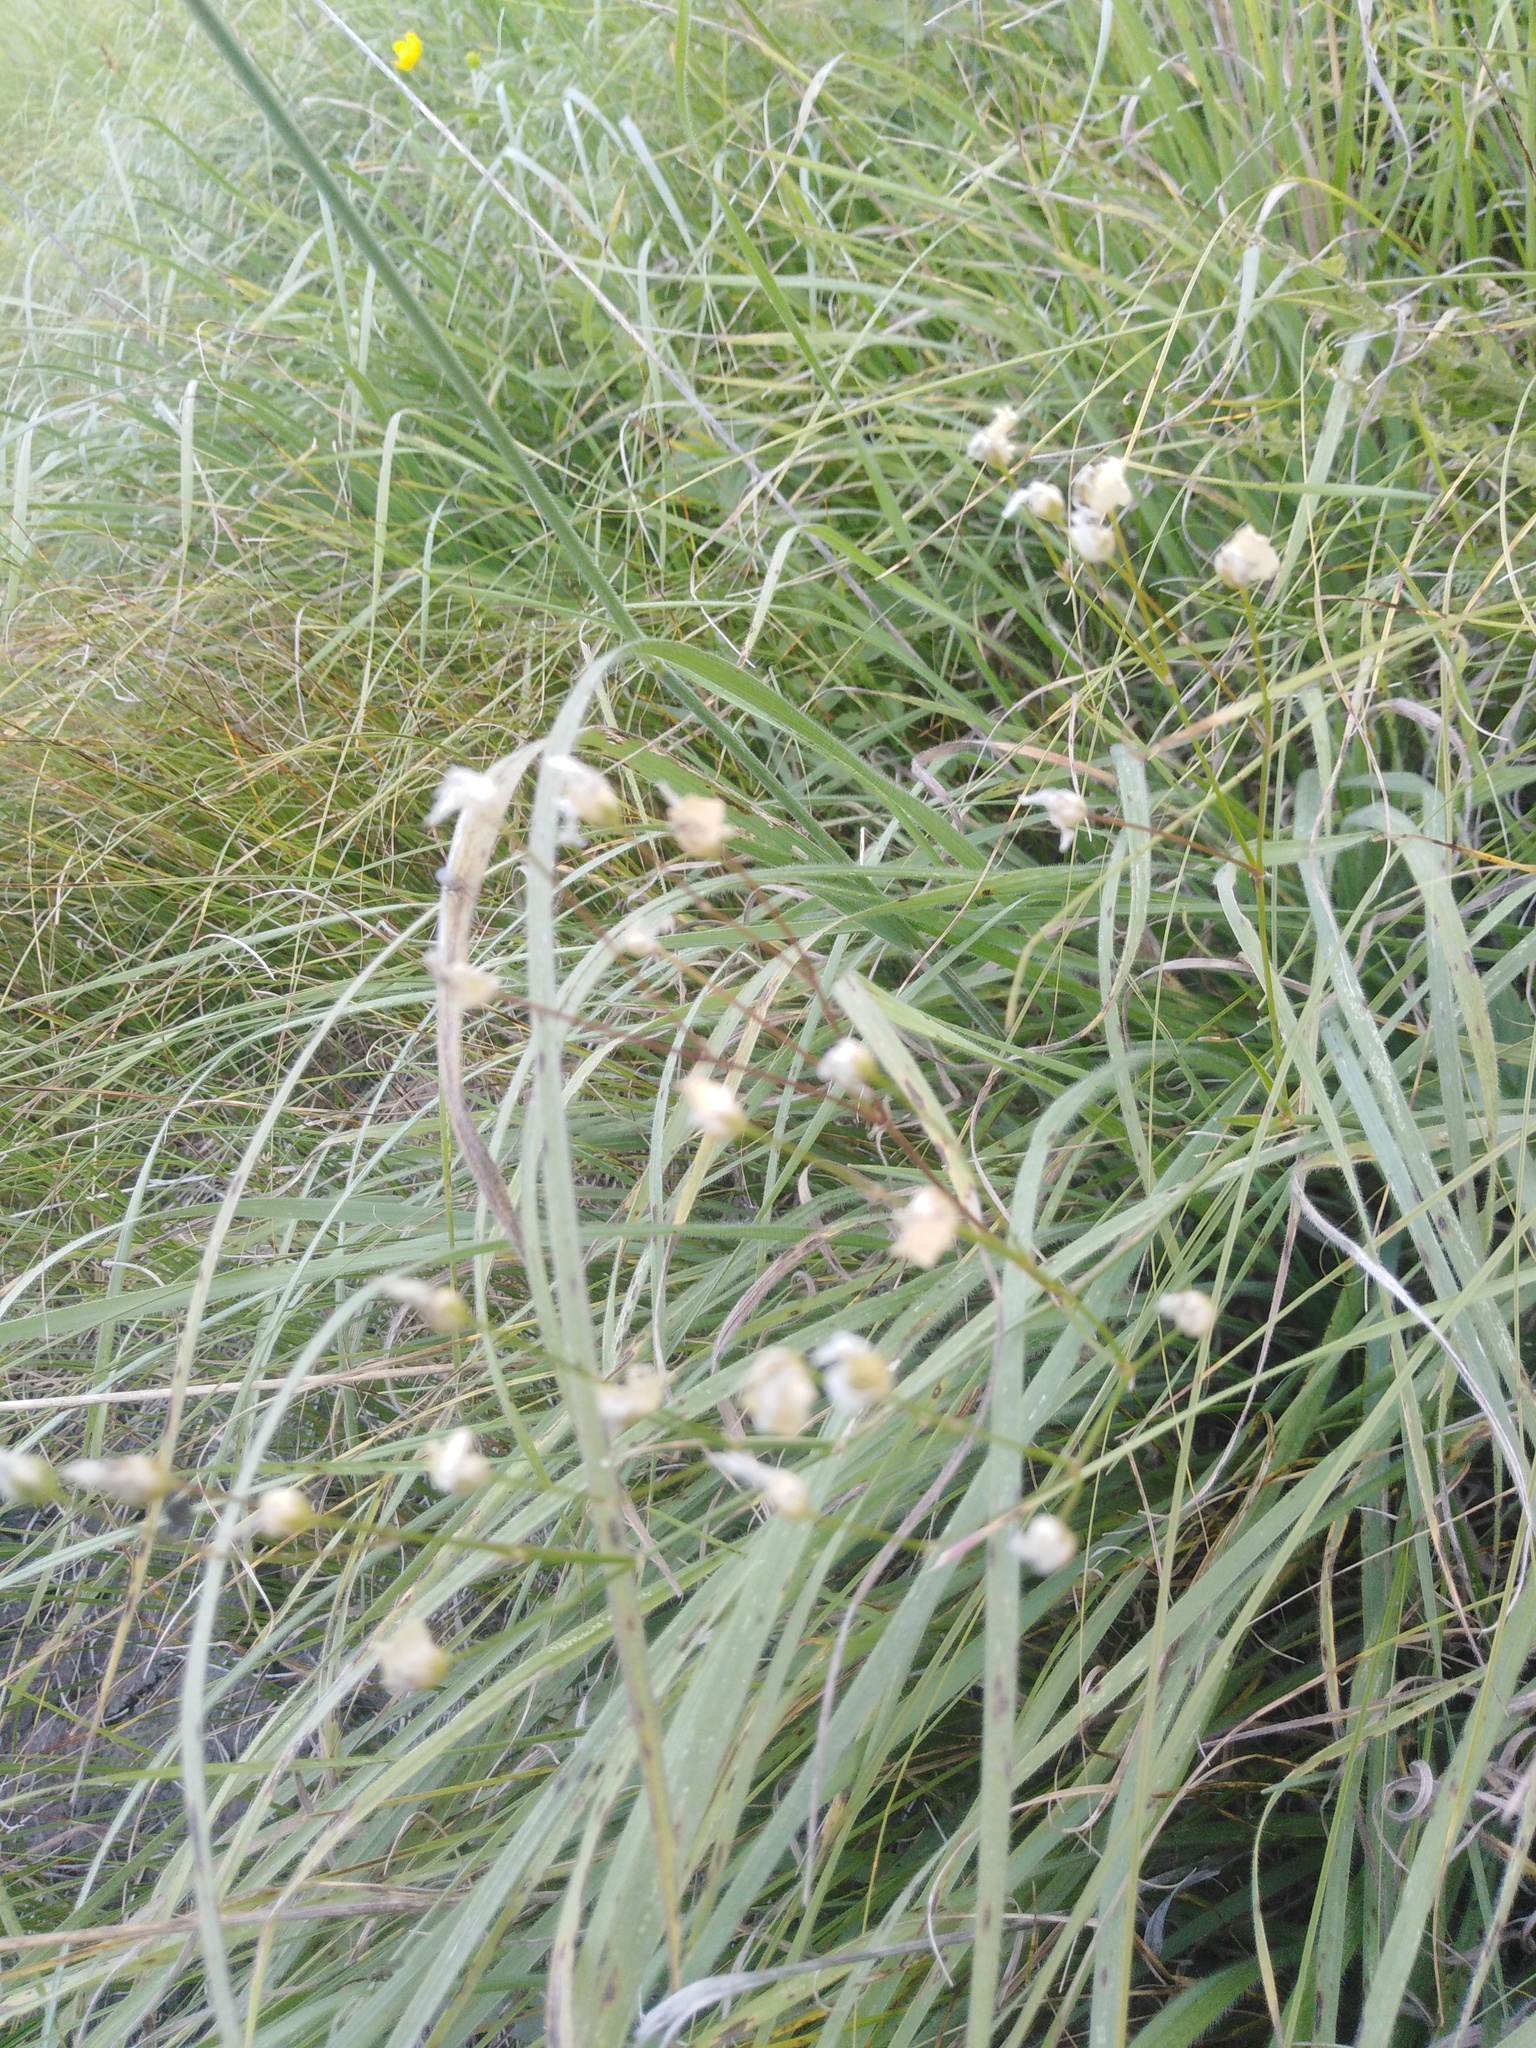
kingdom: Plantae
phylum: Tracheophyta
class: Magnoliopsida
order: Caryophyllales
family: Caryophyllaceae
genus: Eremogone
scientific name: Eremogone saxatilis
